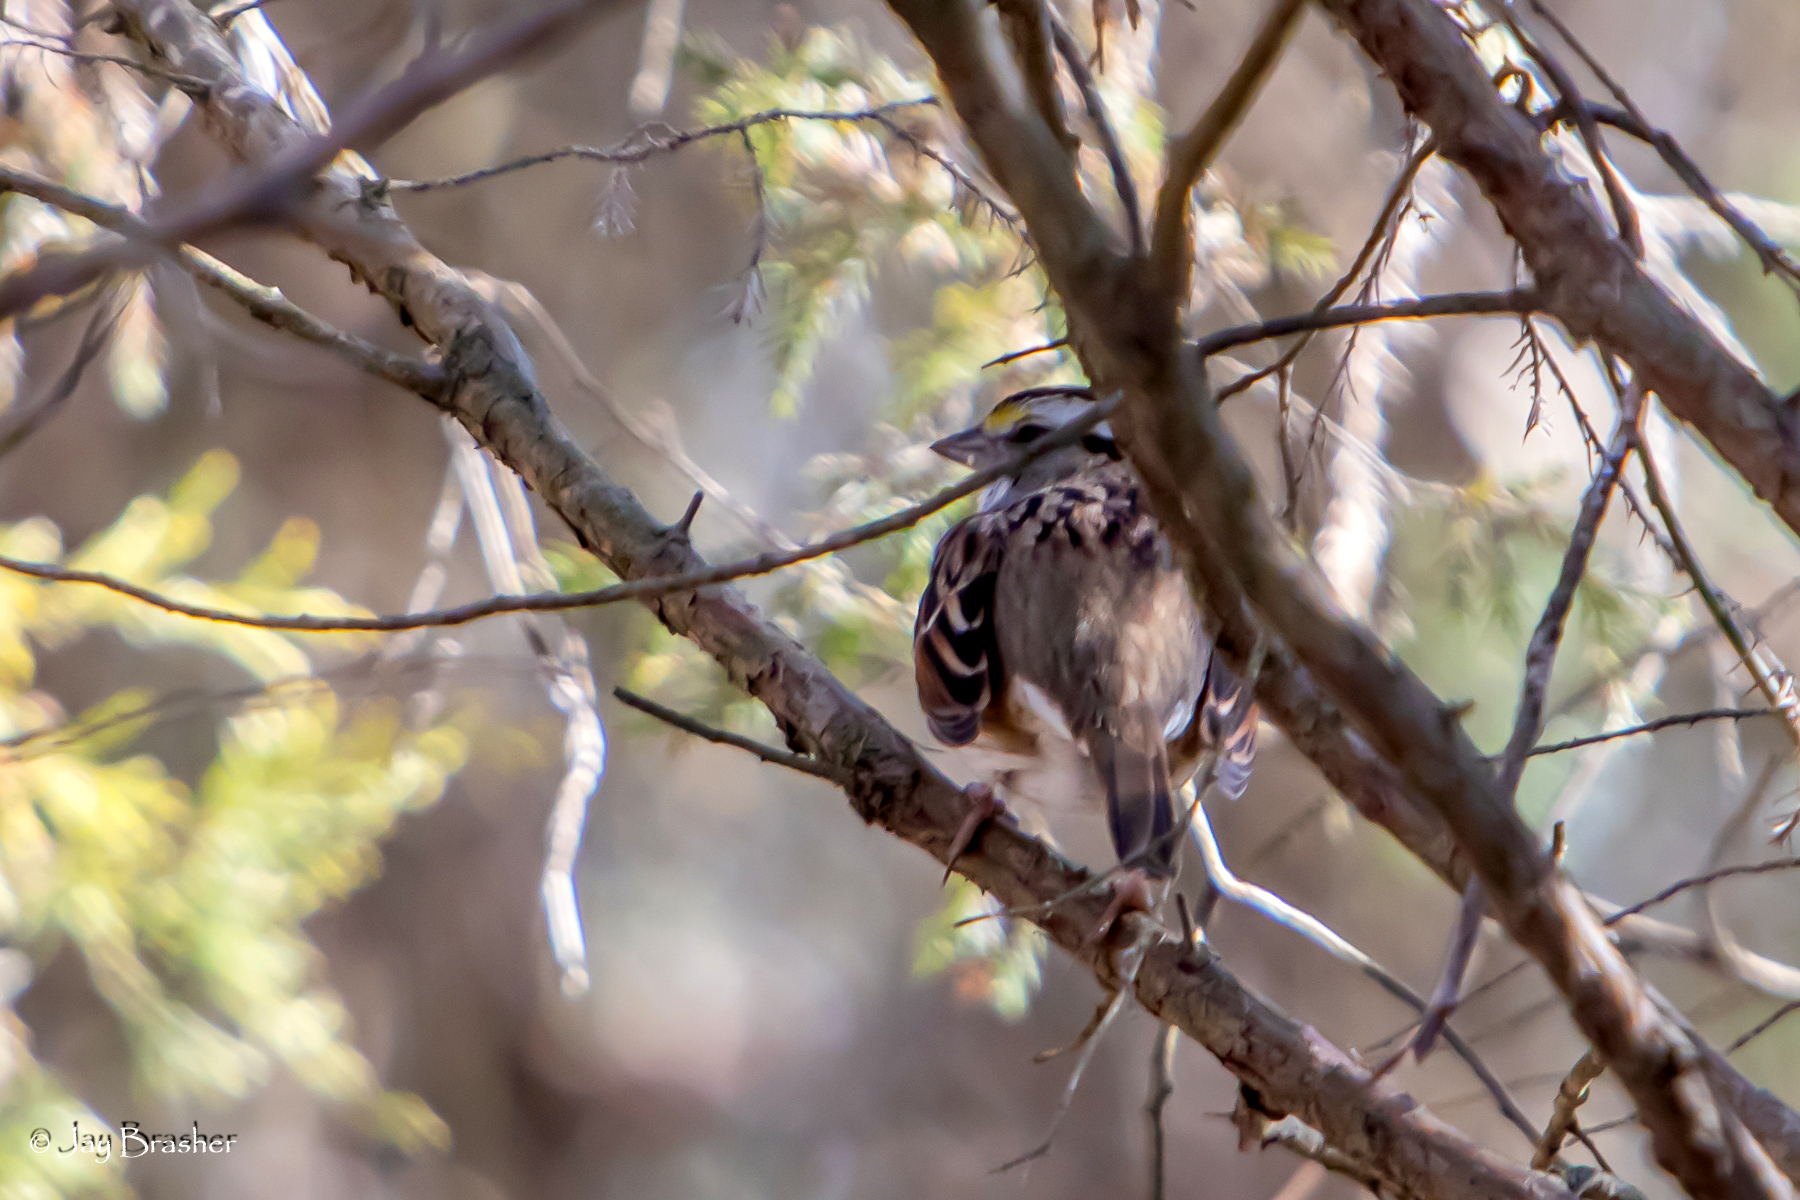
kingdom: Animalia
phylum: Chordata
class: Aves
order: Passeriformes
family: Passerellidae
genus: Zonotrichia
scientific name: Zonotrichia albicollis
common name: White-throated sparrow
